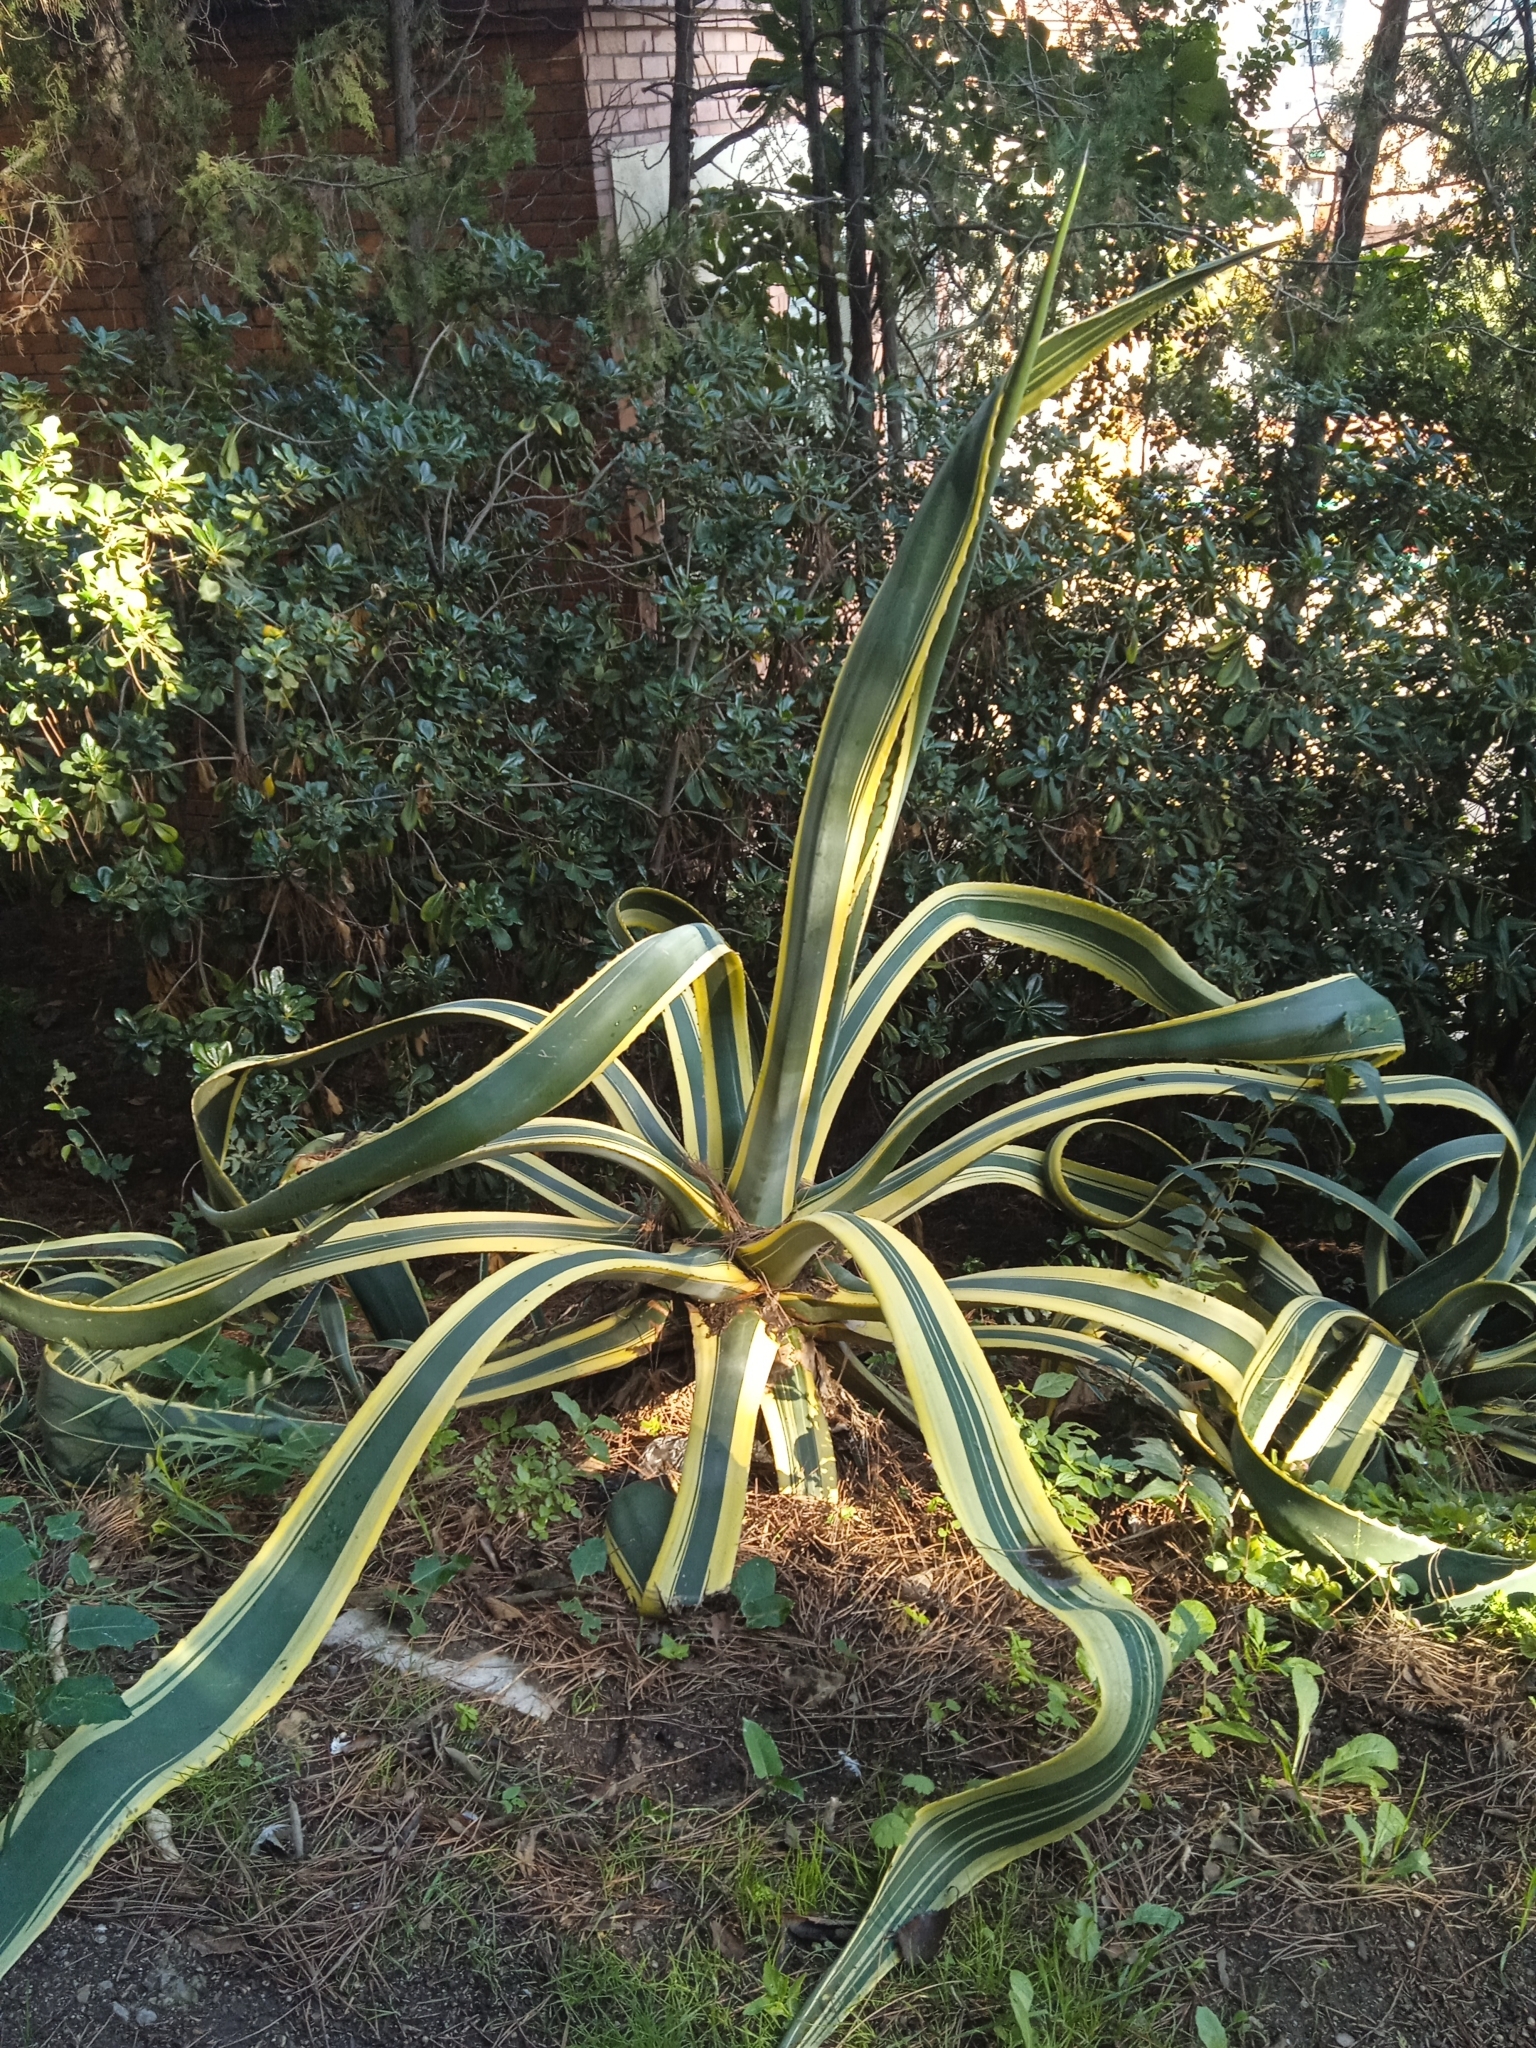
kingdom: Plantae
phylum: Tracheophyta
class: Liliopsida
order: Asparagales
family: Asparagaceae
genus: Agave
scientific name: Agave americana
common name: Centuryplant
